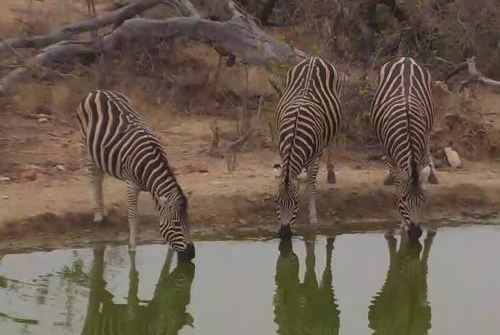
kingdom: Animalia
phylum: Chordata
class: Mammalia
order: Perissodactyla
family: Equidae
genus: Equus
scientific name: Equus quagga
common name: Plains zebra
